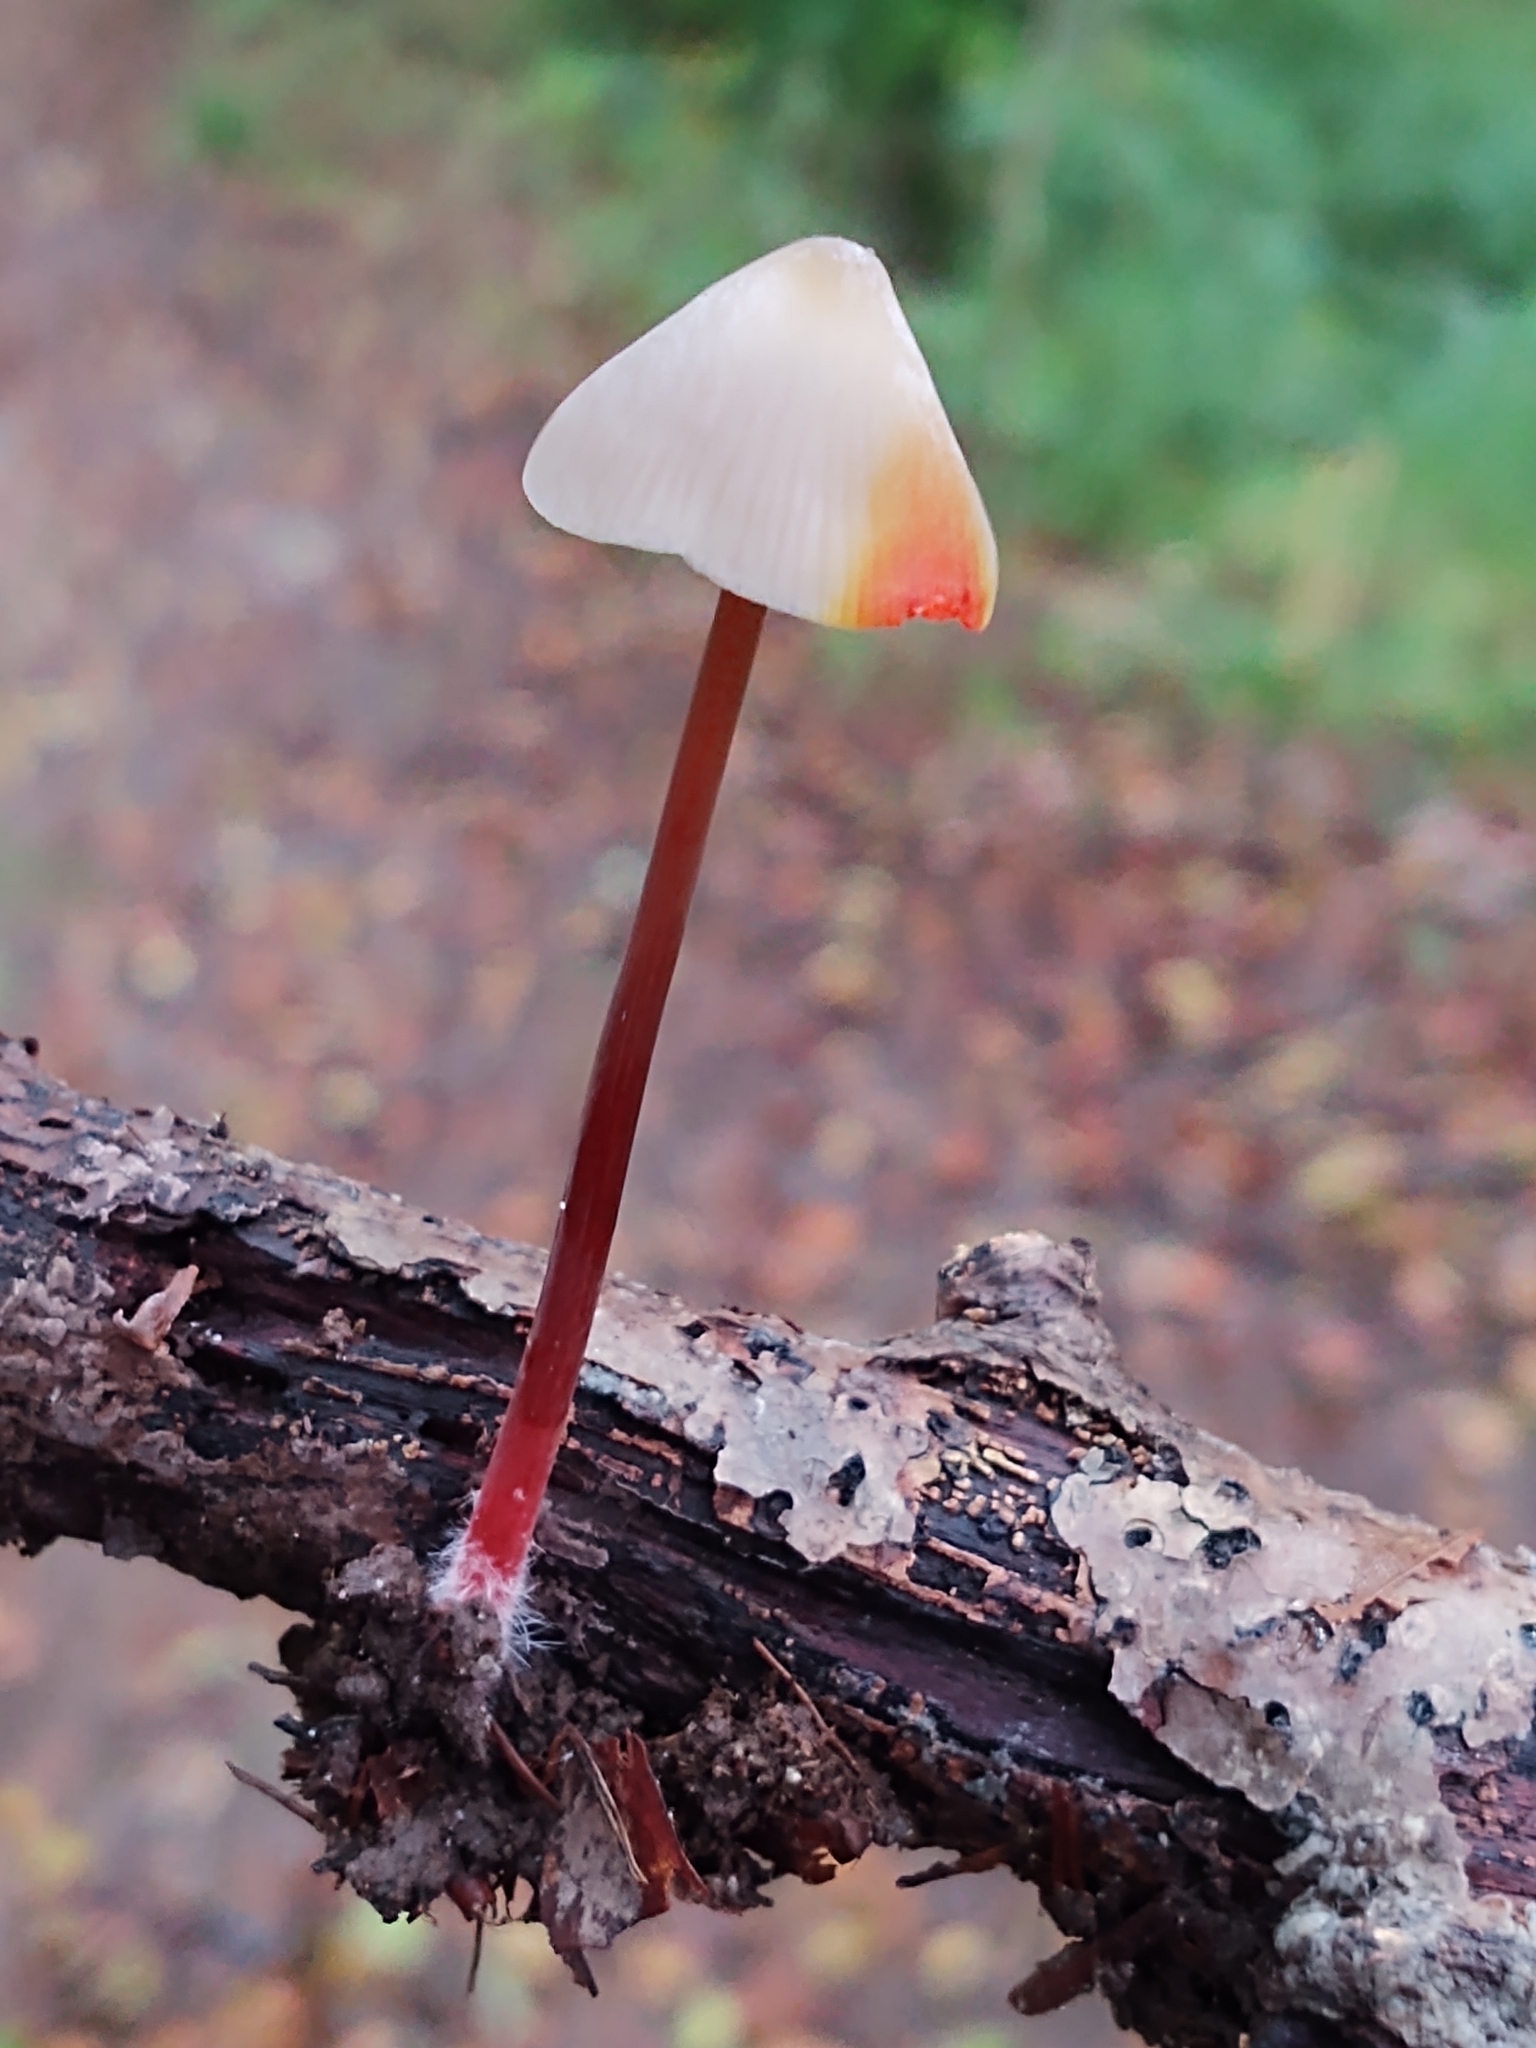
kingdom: Fungi
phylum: Basidiomycota
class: Agaricomycetes
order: Agaricales
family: Mycenaceae
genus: Mycena
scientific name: Mycena crocata
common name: Saffrondrop bonnet
